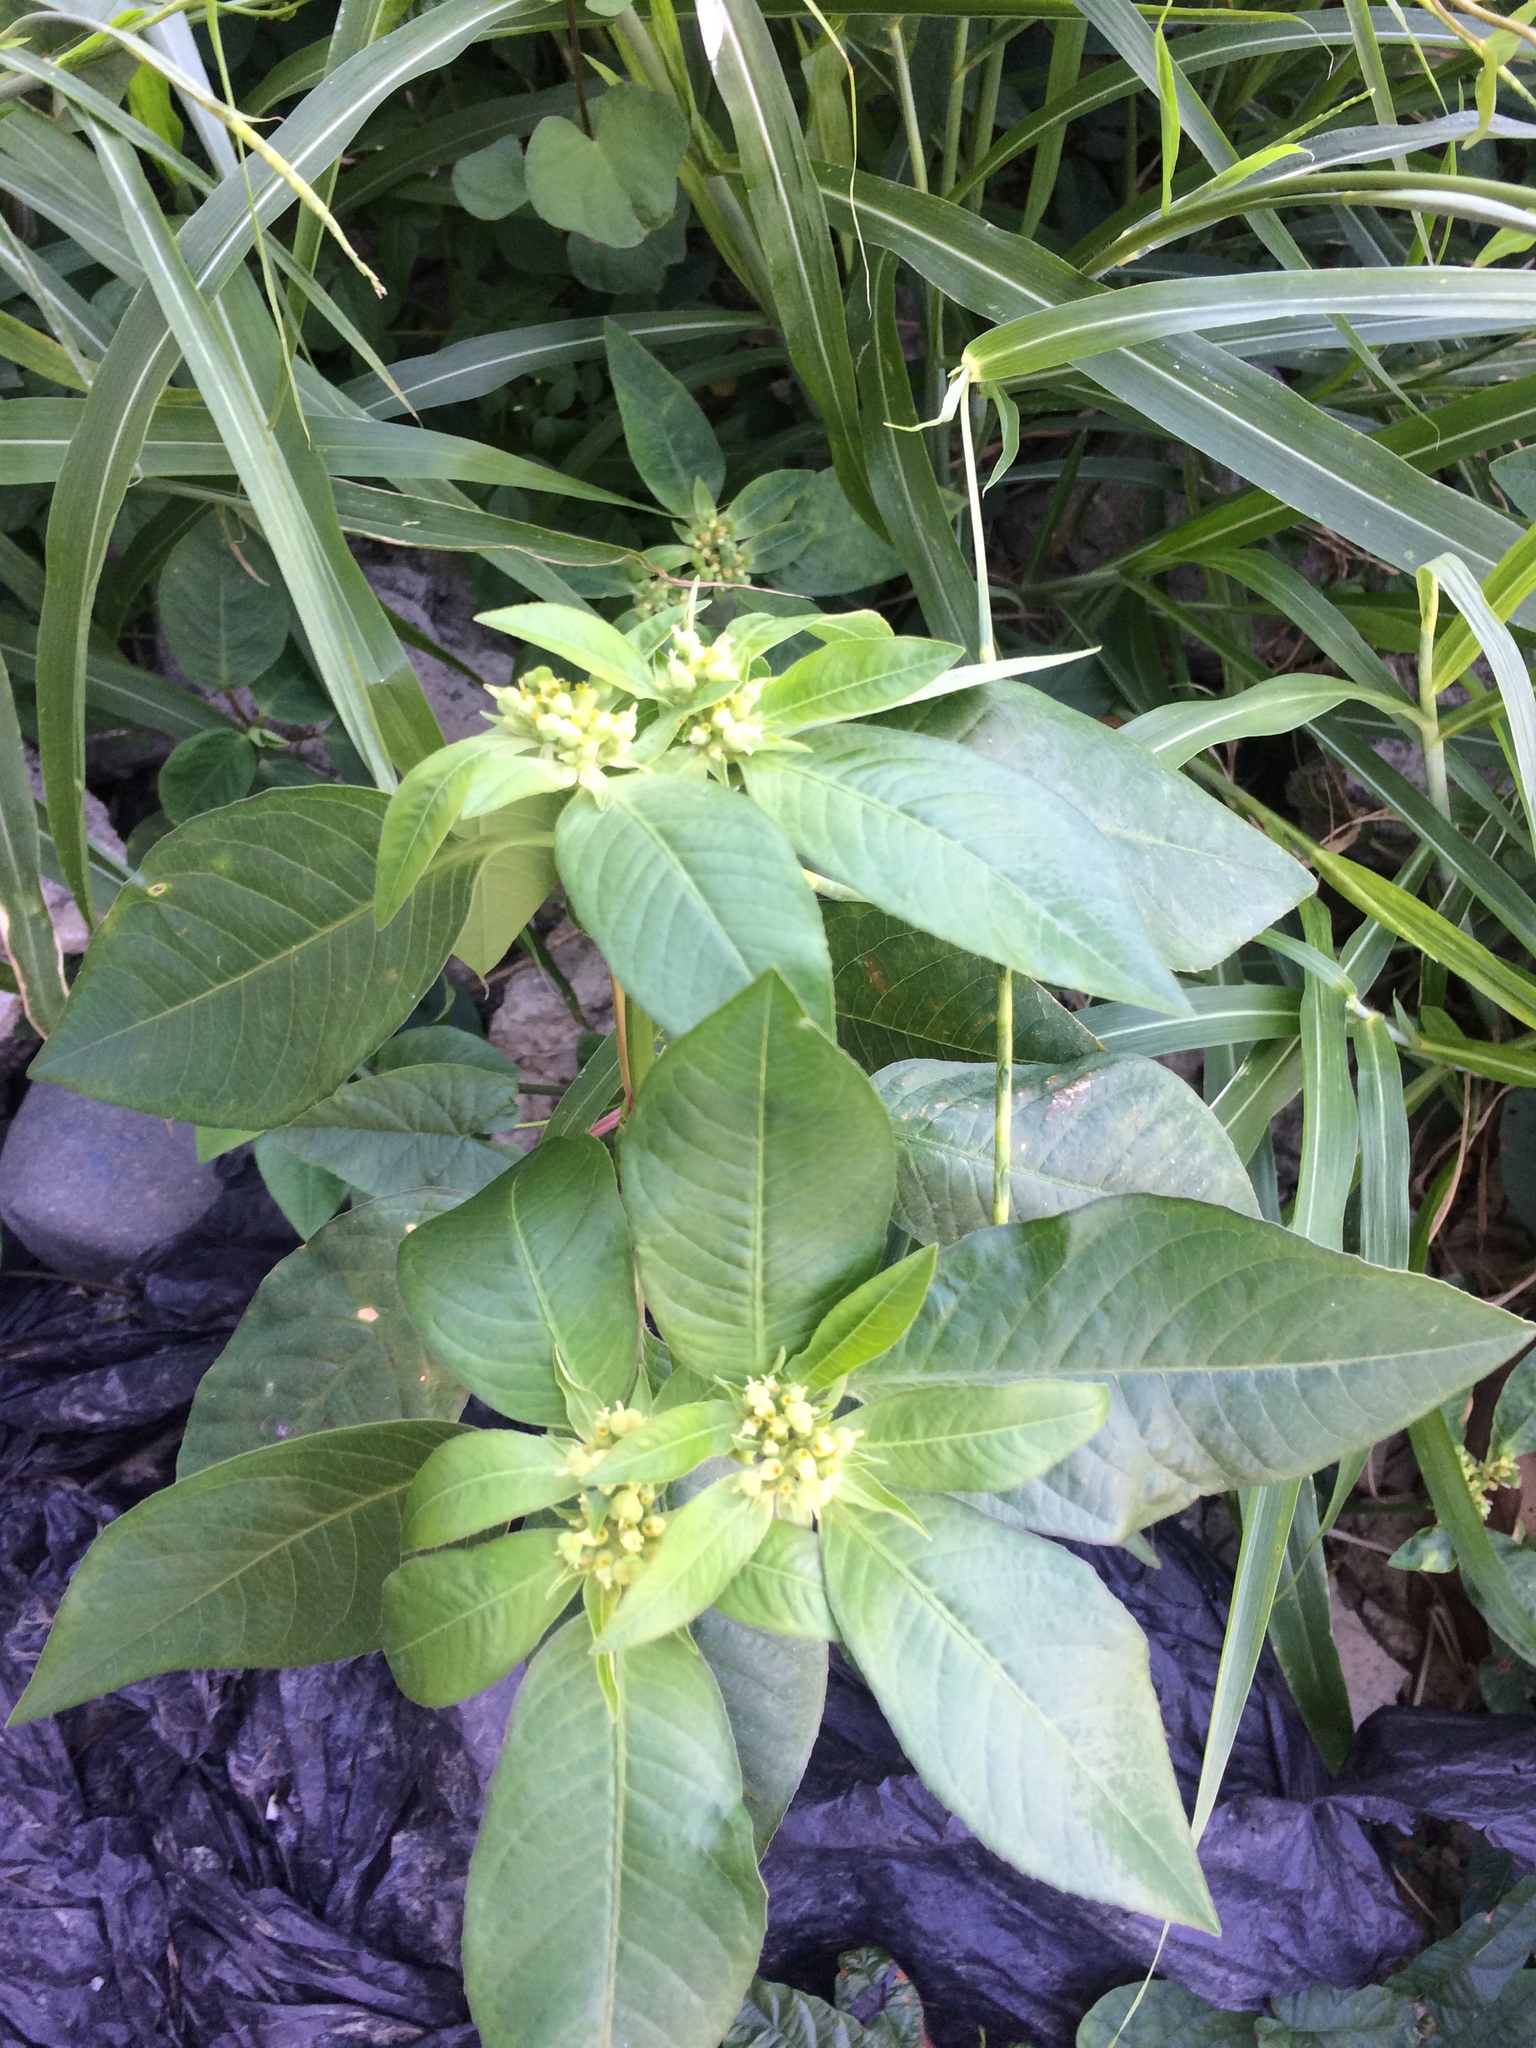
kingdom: Plantae
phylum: Tracheophyta
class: Magnoliopsida
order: Malpighiales
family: Euphorbiaceae
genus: Euphorbia
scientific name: Euphorbia heterophylla
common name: Mexican fireplant
